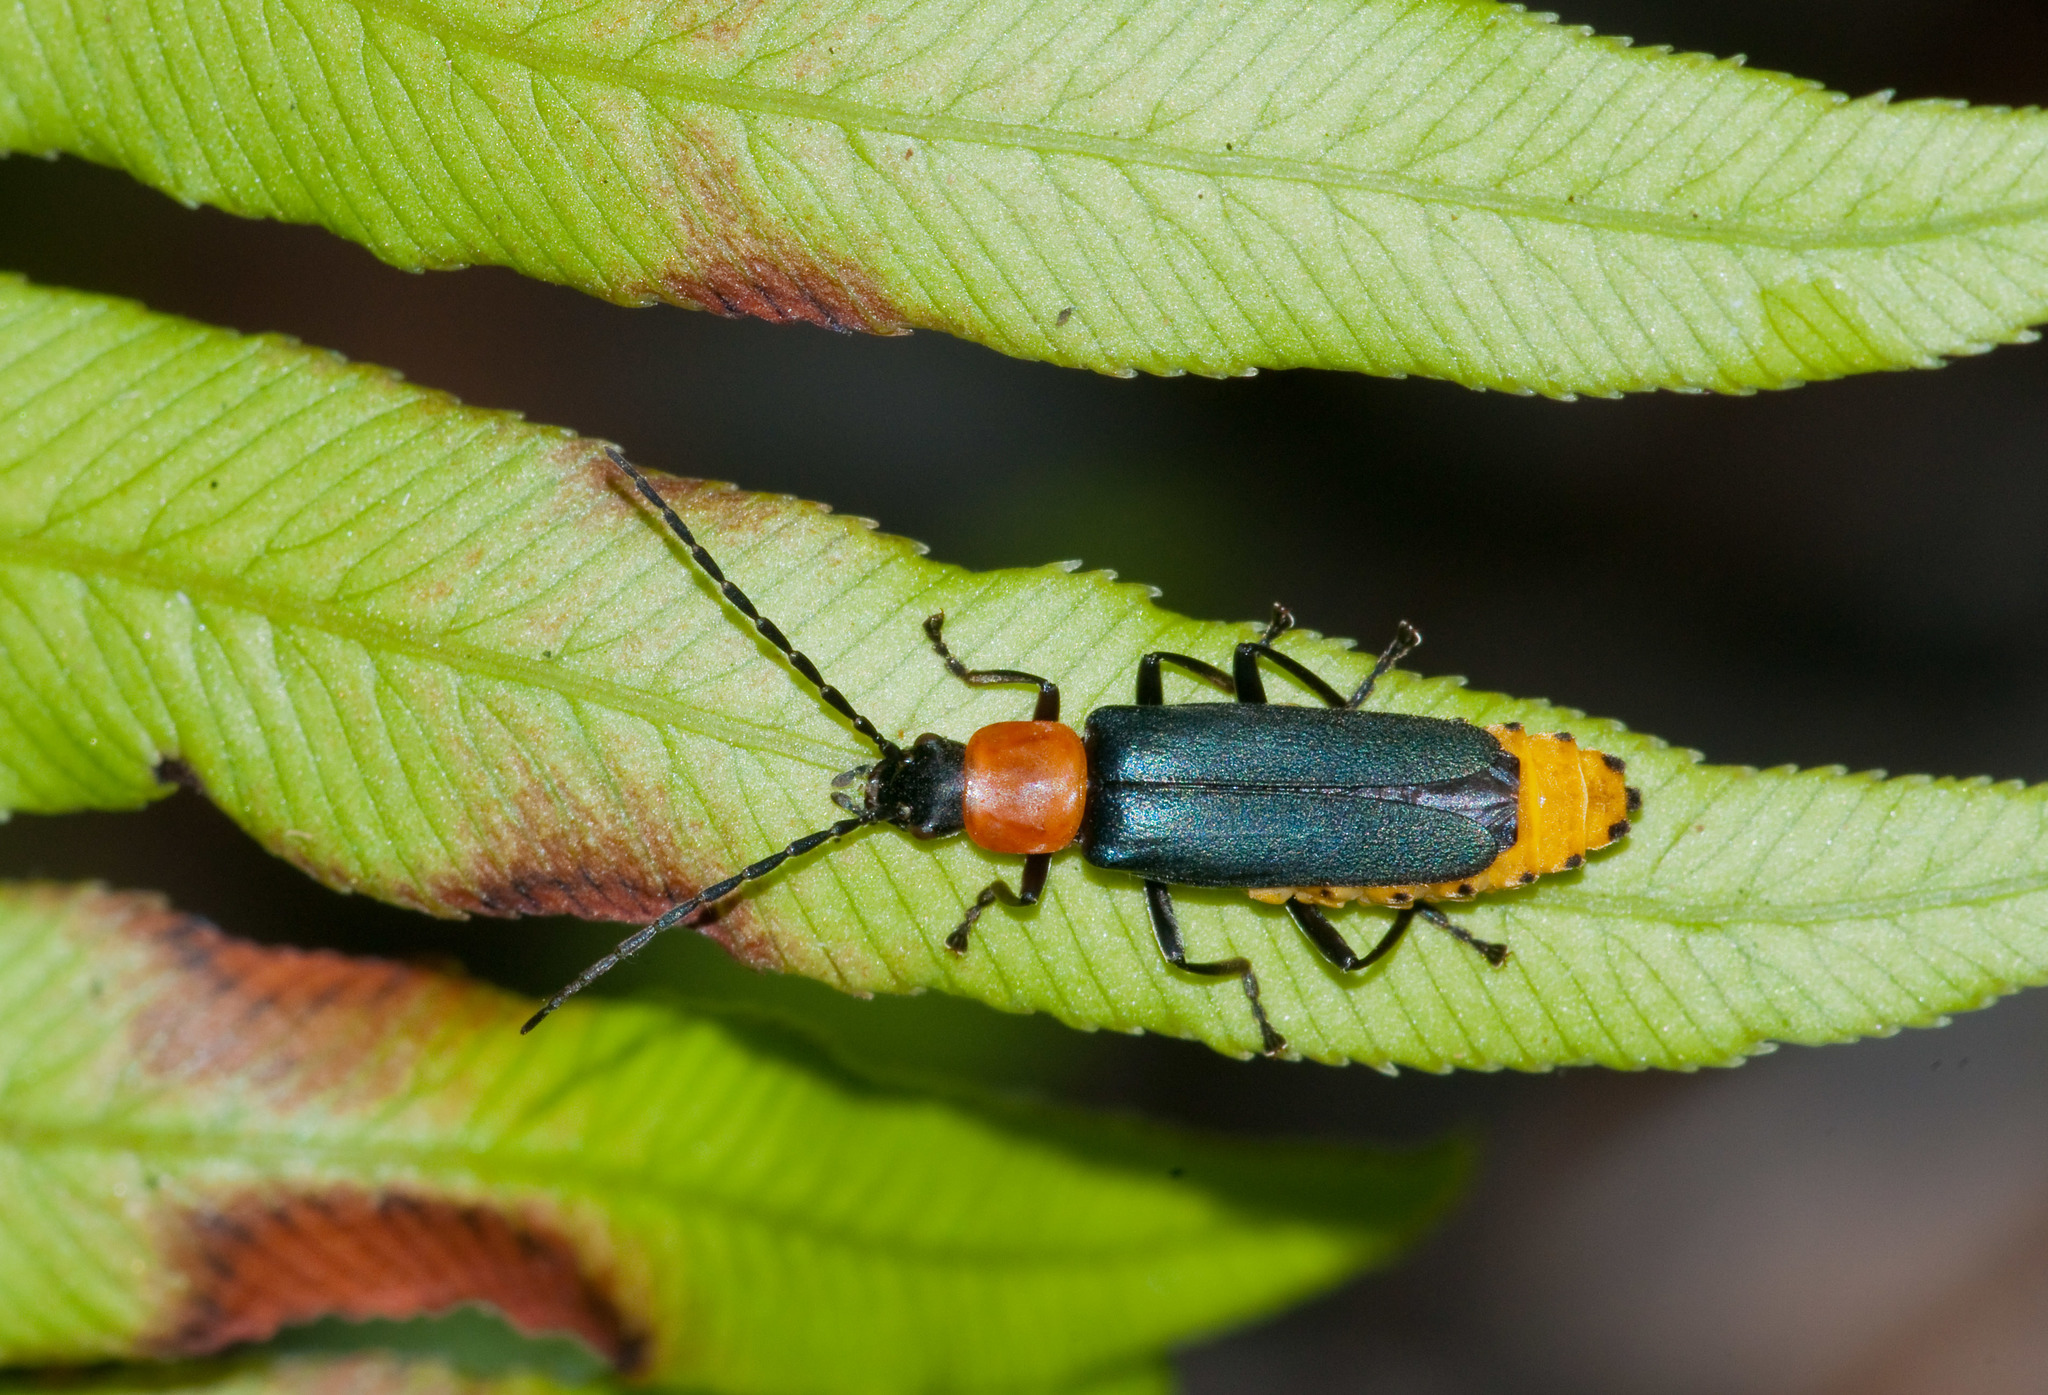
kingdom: Animalia
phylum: Arthropoda
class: Insecta
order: Coleoptera
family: Cantharidae
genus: Chauliognathus
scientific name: Chauliognathus
